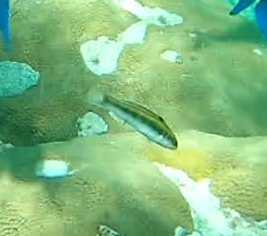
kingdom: Animalia
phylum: Chordata
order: Perciformes
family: Labridae
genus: Thalassoma
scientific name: Thalassoma bifasciatum
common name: Bluehead wrasse
